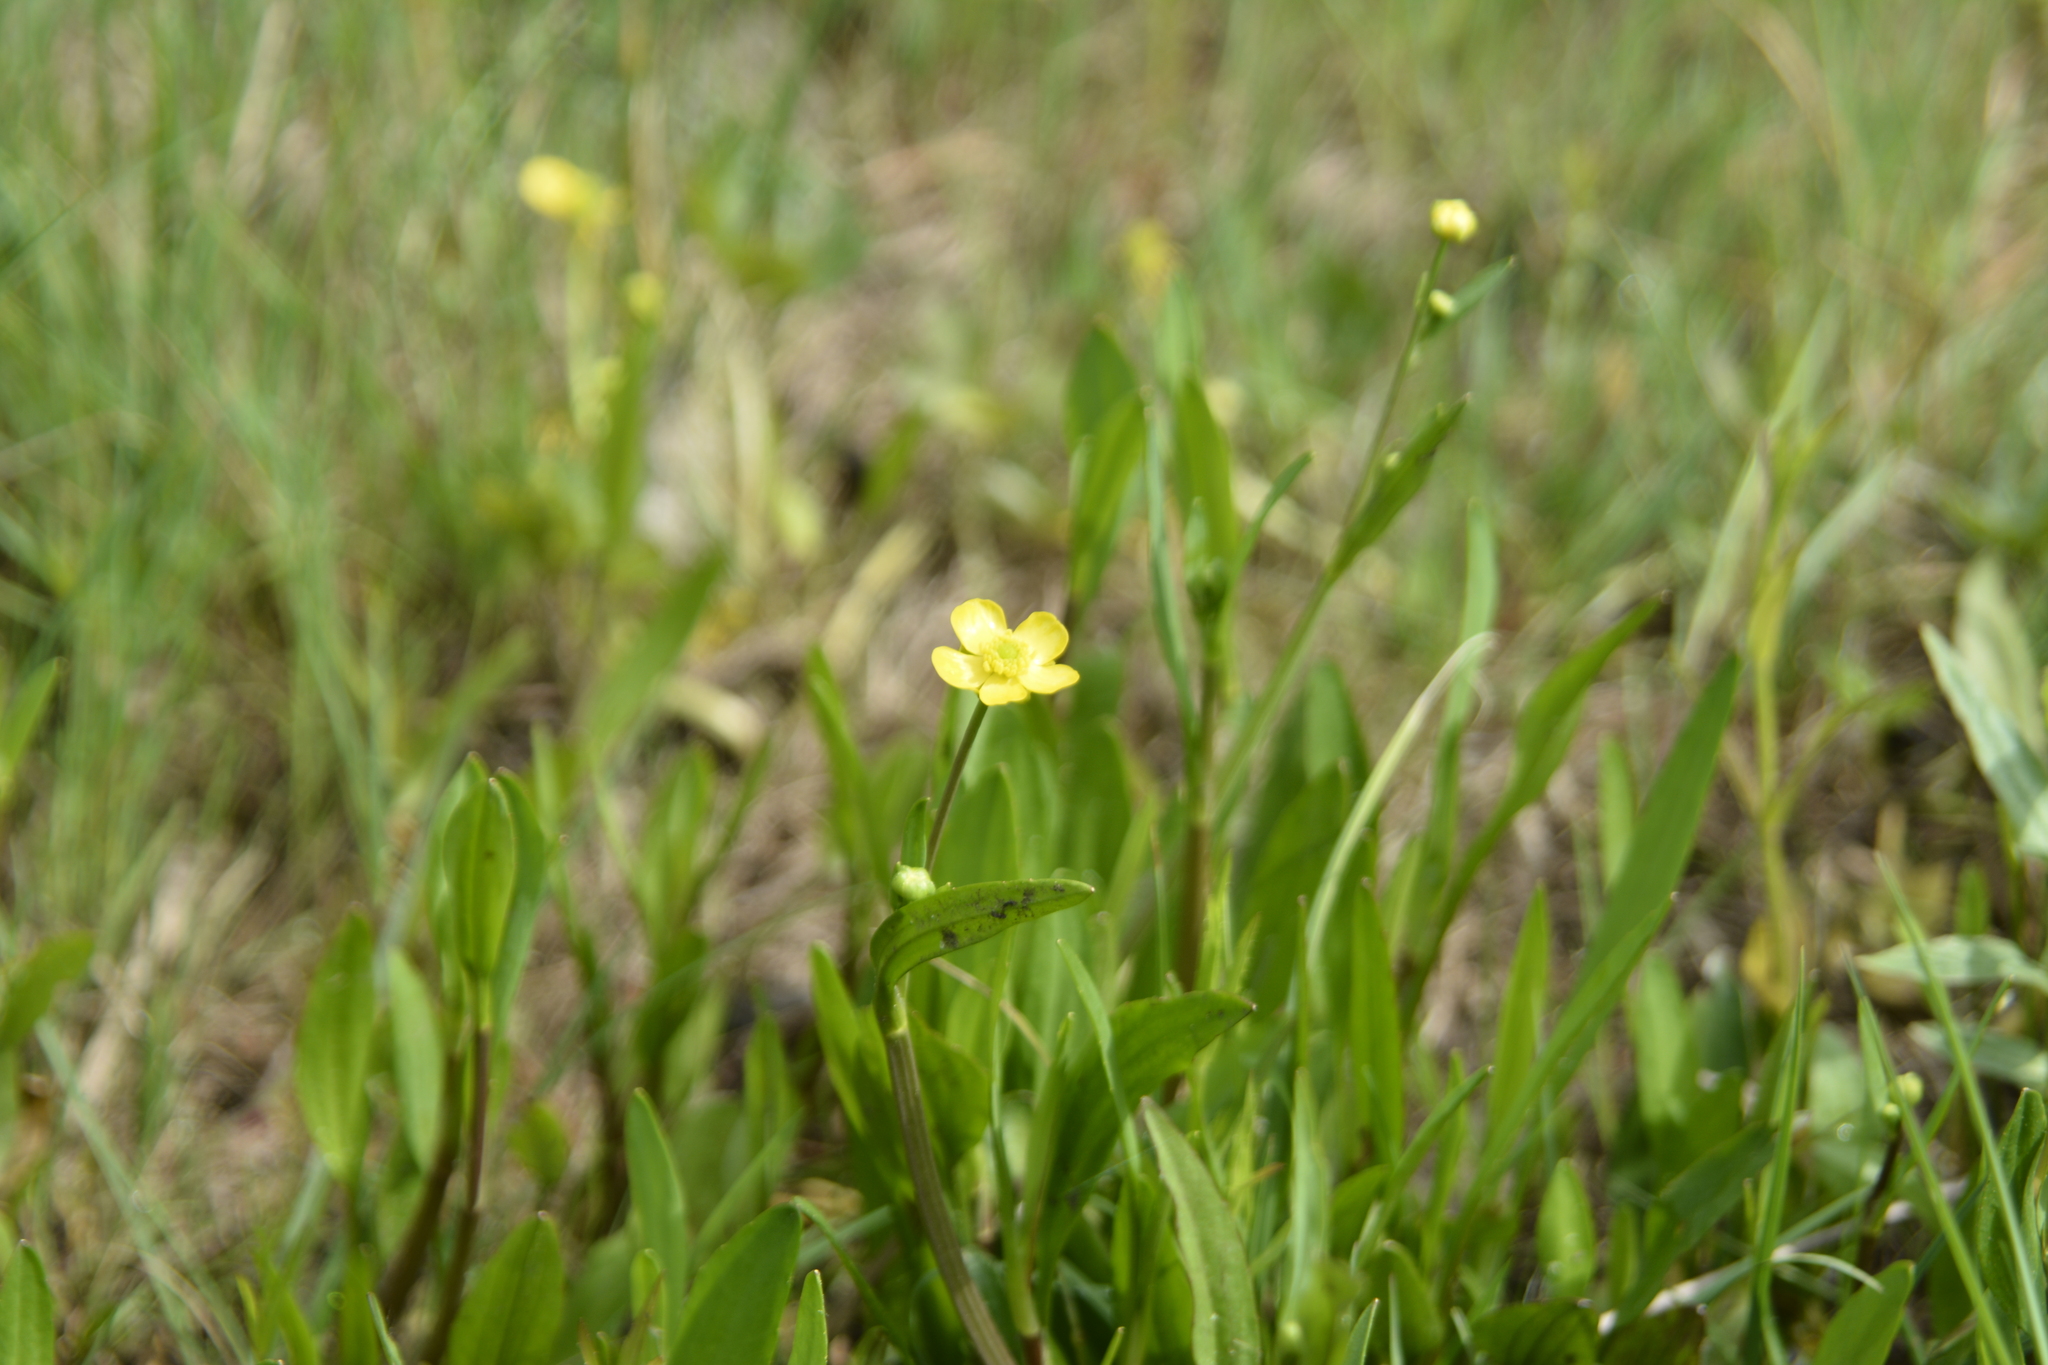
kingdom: Plantae
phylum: Tracheophyta
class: Magnoliopsida
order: Ranunculales
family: Ranunculaceae
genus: Ranunculus
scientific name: Ranunculus flammula
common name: Lesser spearwort
